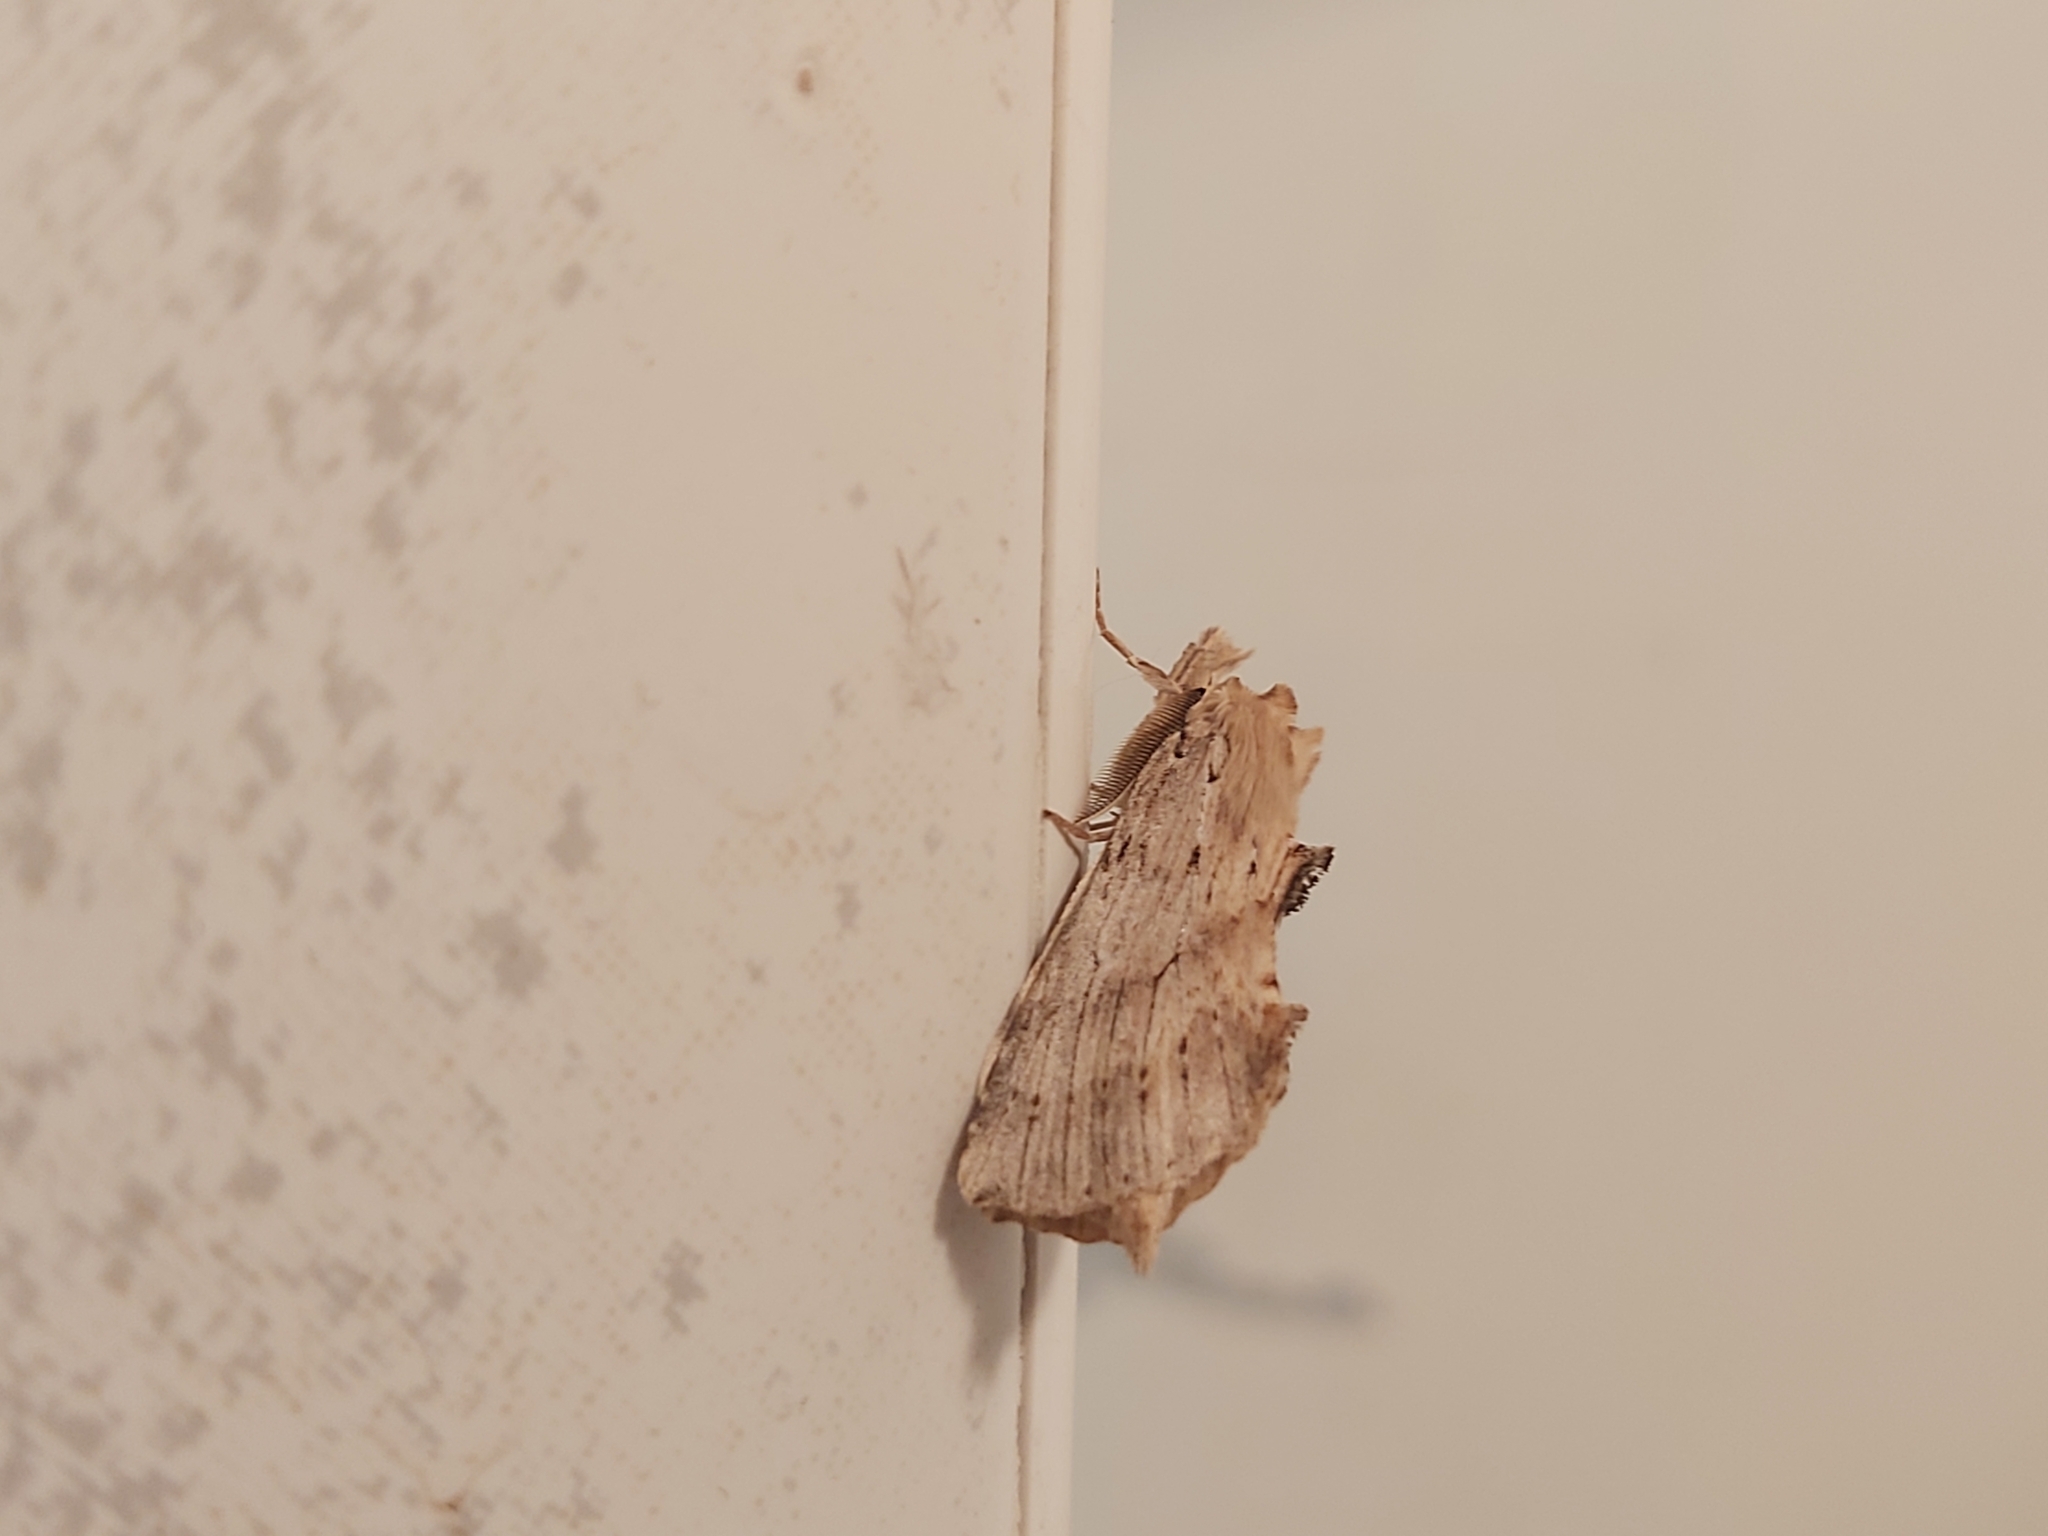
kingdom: Animalia
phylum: Arthropoda
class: Insecta
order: Lepidoptera
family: Notodontidae
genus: Pterostoma
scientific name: Pterostoma palpina
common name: Pale prominent
